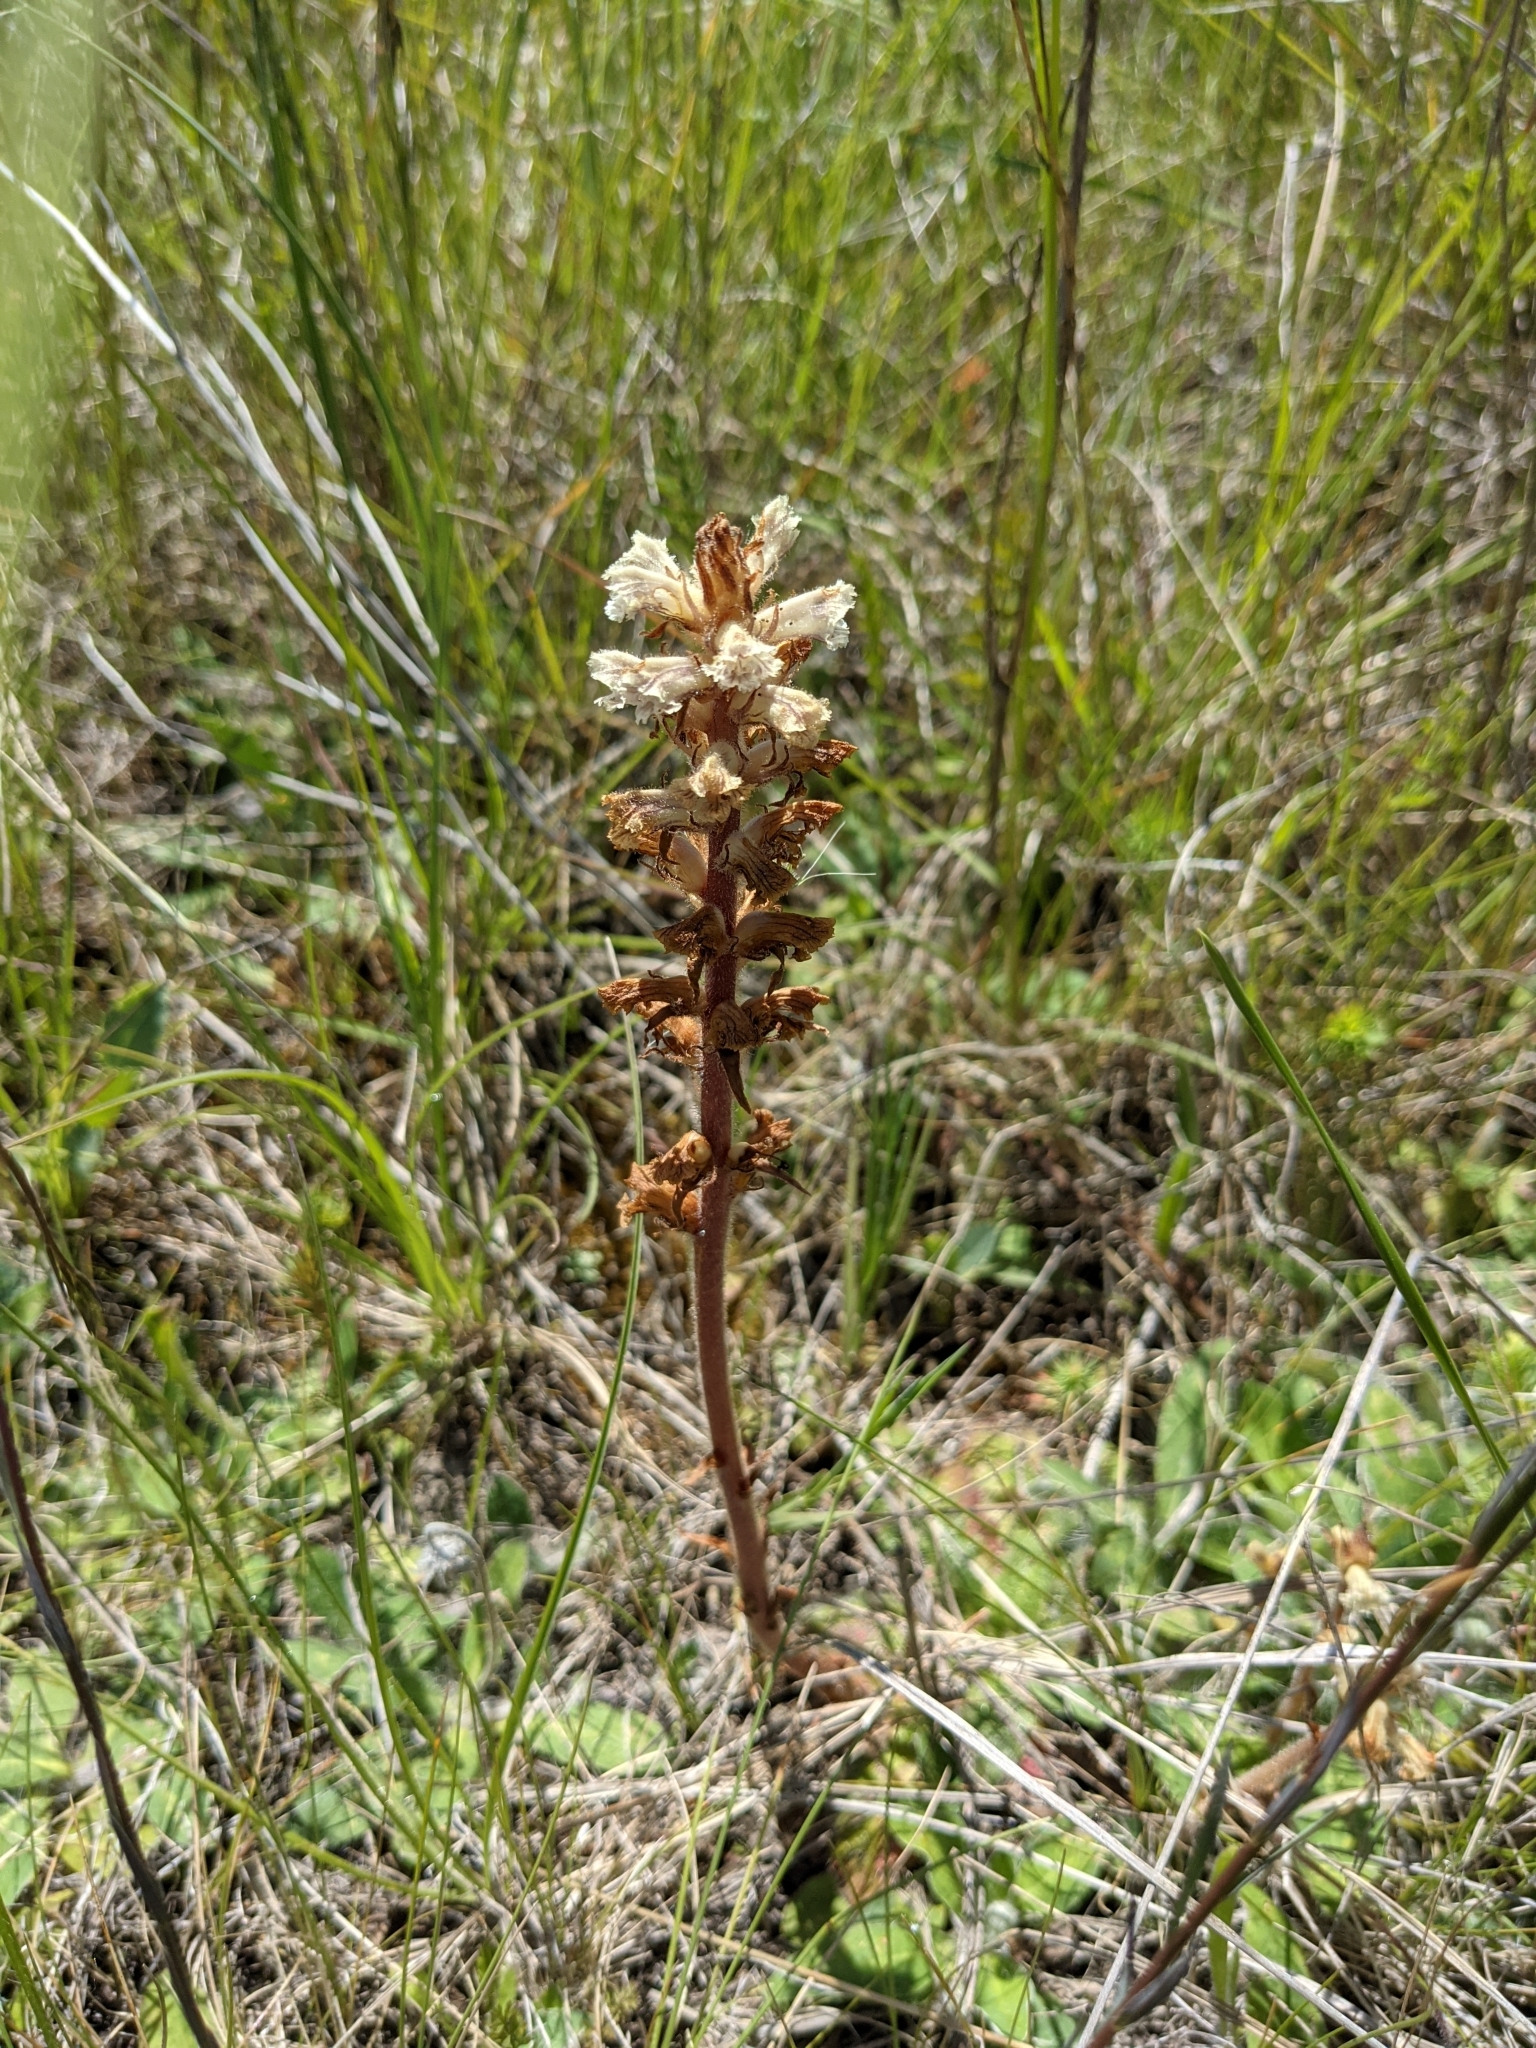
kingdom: Plantae
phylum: Tracheophyta
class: Magnoliopsida
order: Lamiales
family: Orobanchaceae
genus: Orobanche
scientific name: Orobanche minor
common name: Common broomrape
